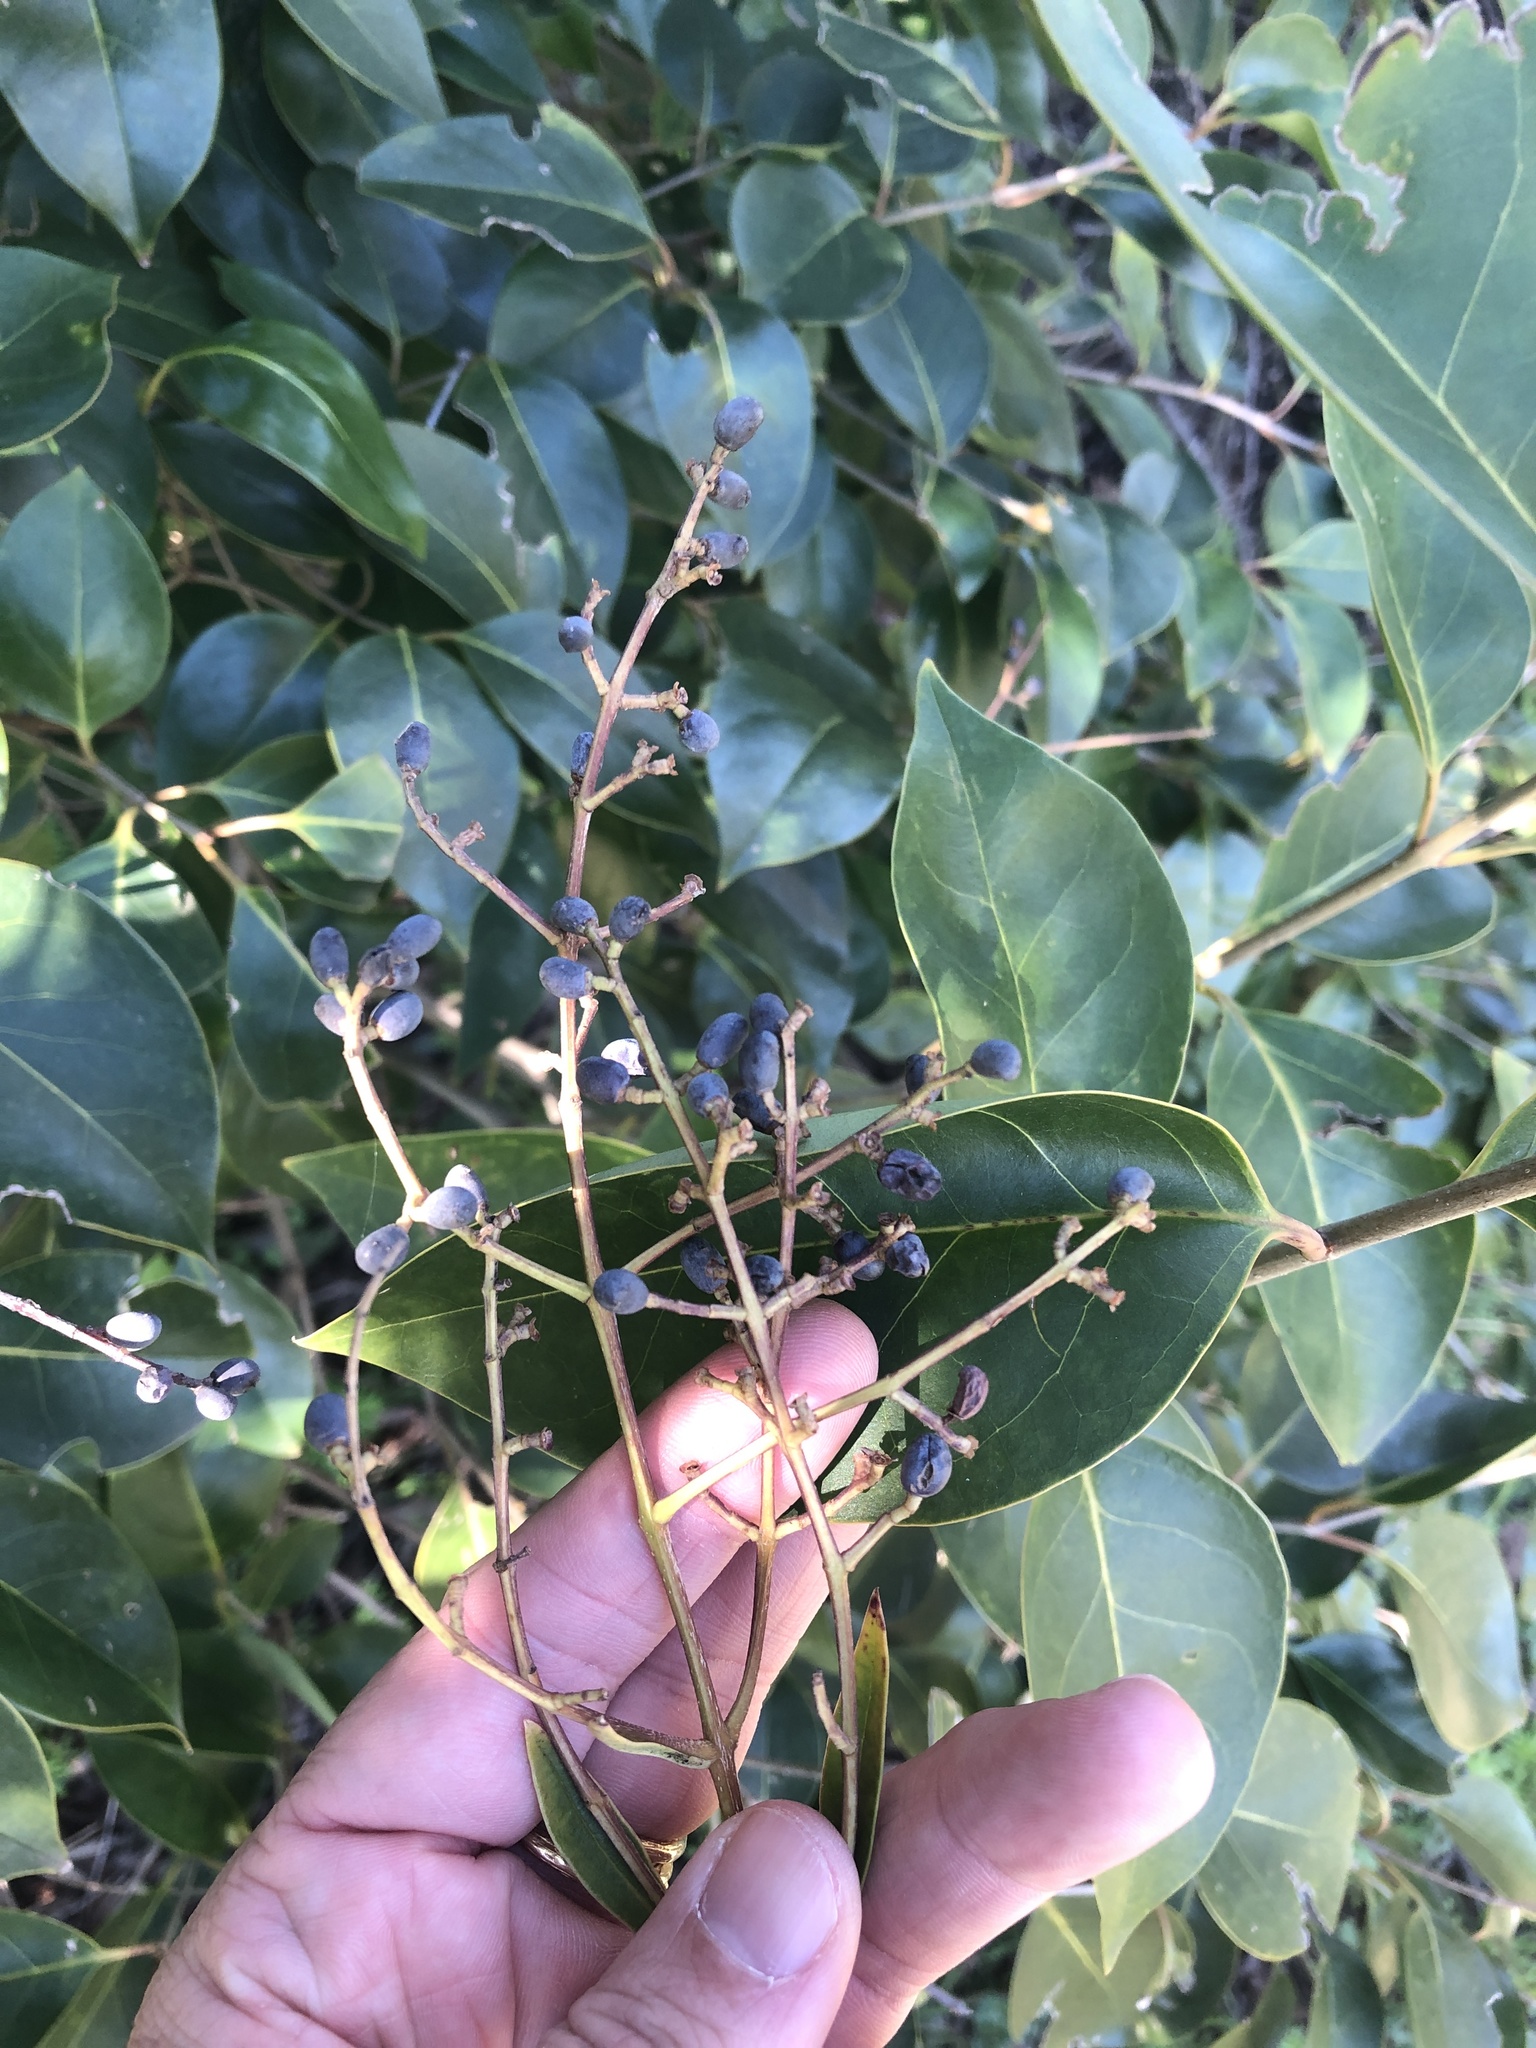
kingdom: Plantae
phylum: Tracheophyta
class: Magnoliopsida
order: Lamiales
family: Oleaceae
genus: Ligustrum
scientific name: Ligustrum lucidum
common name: Glossy privet
